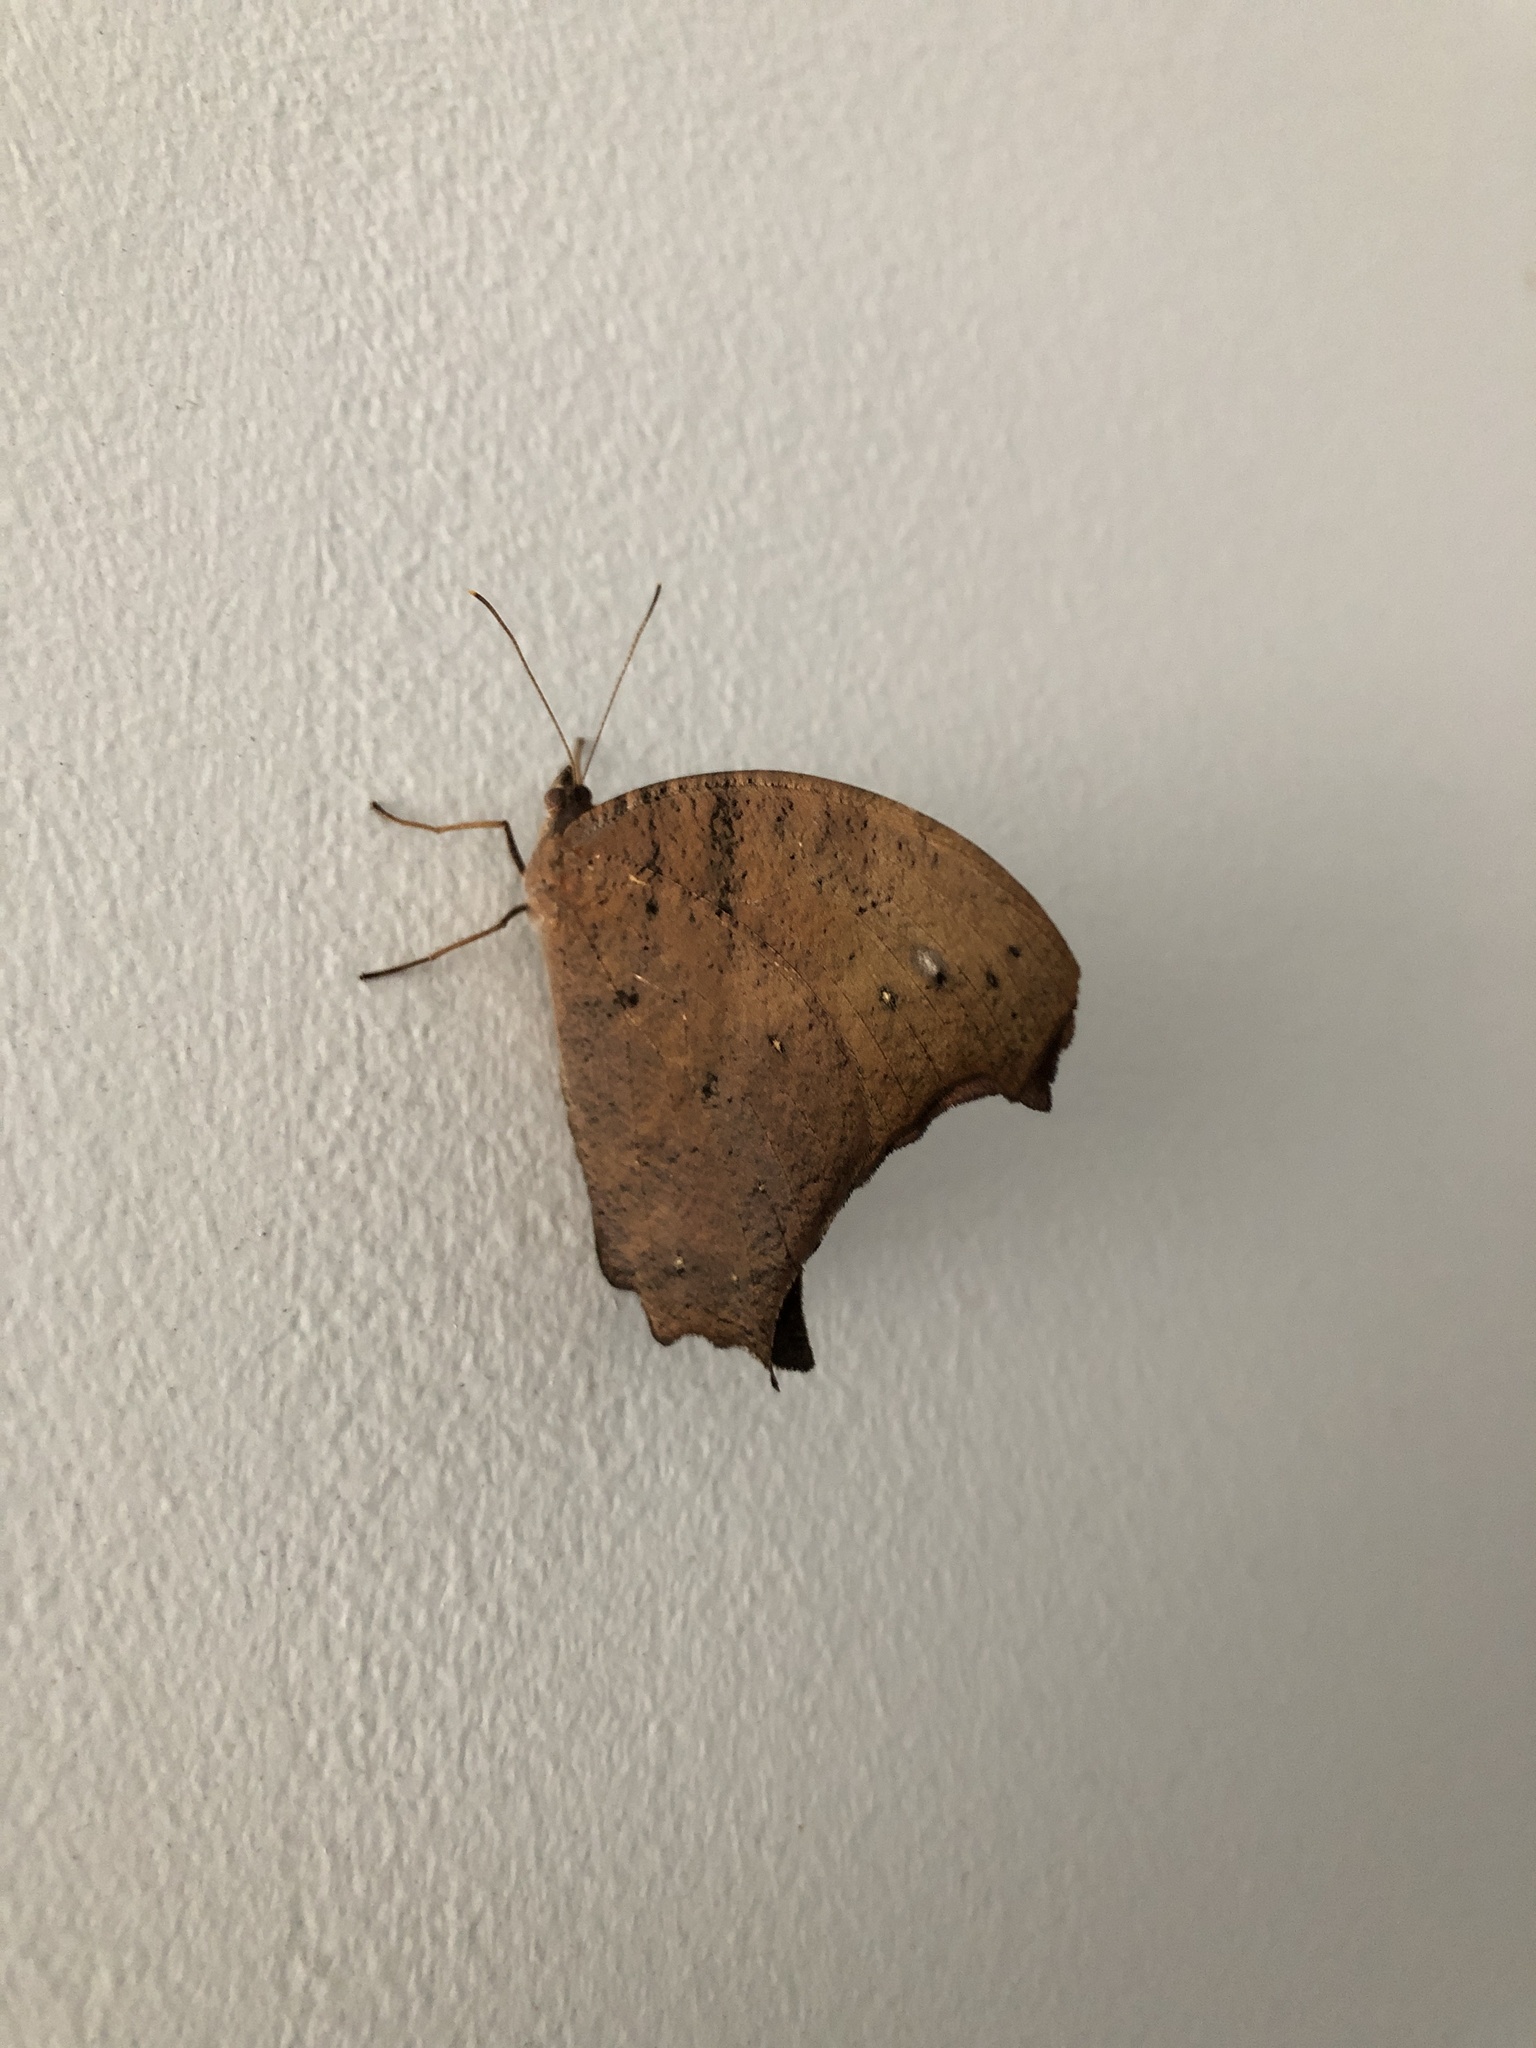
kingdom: Animalia
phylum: Arthropoda
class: Insecta
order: Lepidoptera
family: Nymphalidae
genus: Melanitis
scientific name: Melanitis leda
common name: Twilight brown
